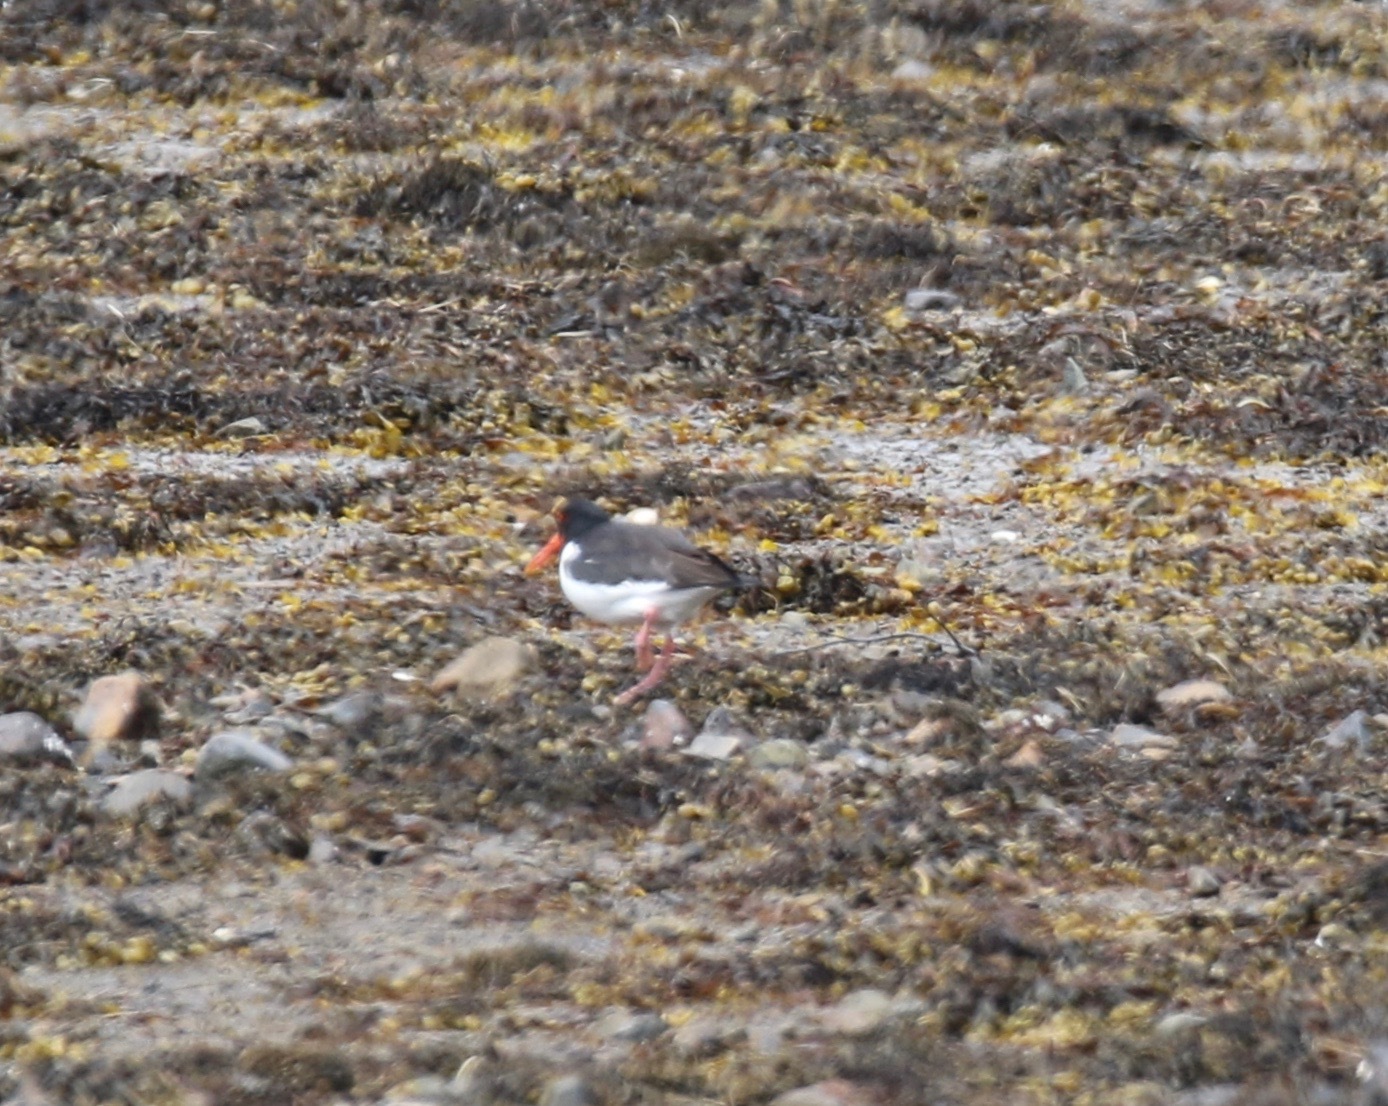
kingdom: Animalia
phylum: Chordata
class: Aves
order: Charadriiformes
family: Haematopodidae
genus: Haematopus
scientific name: Haematopus ostralegus
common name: Eurasian oystercatcher
